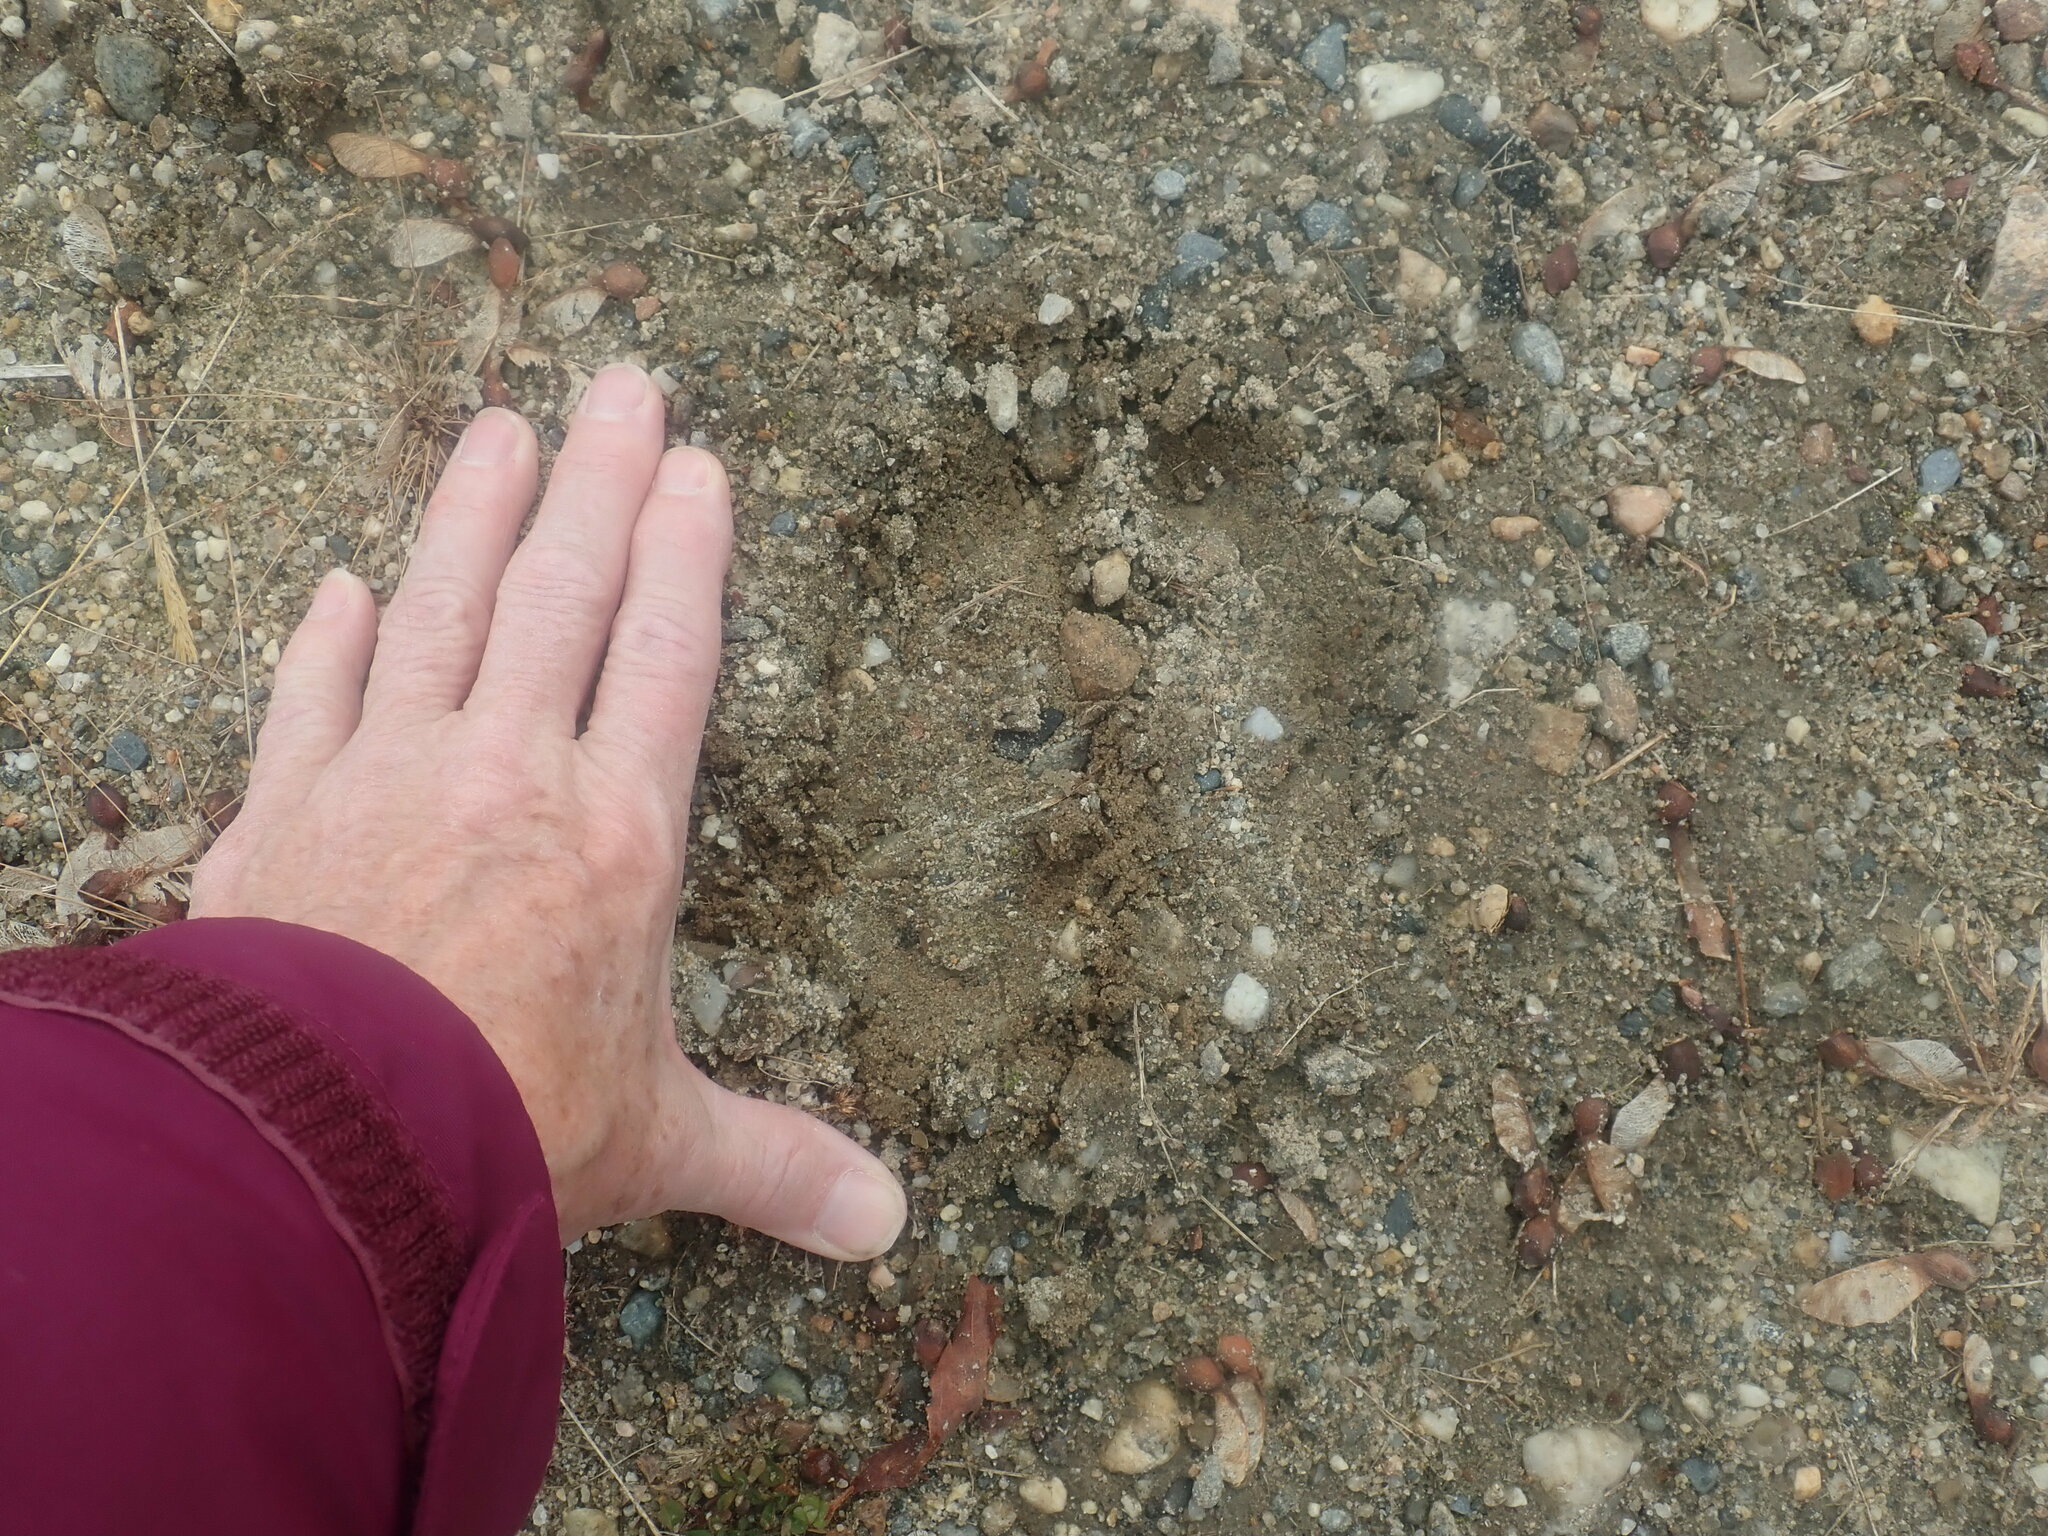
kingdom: Animalia
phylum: Chordata
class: Mammalia
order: Artiodactyla
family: Cervidae
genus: Alces
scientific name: Alces alces
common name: Moose
